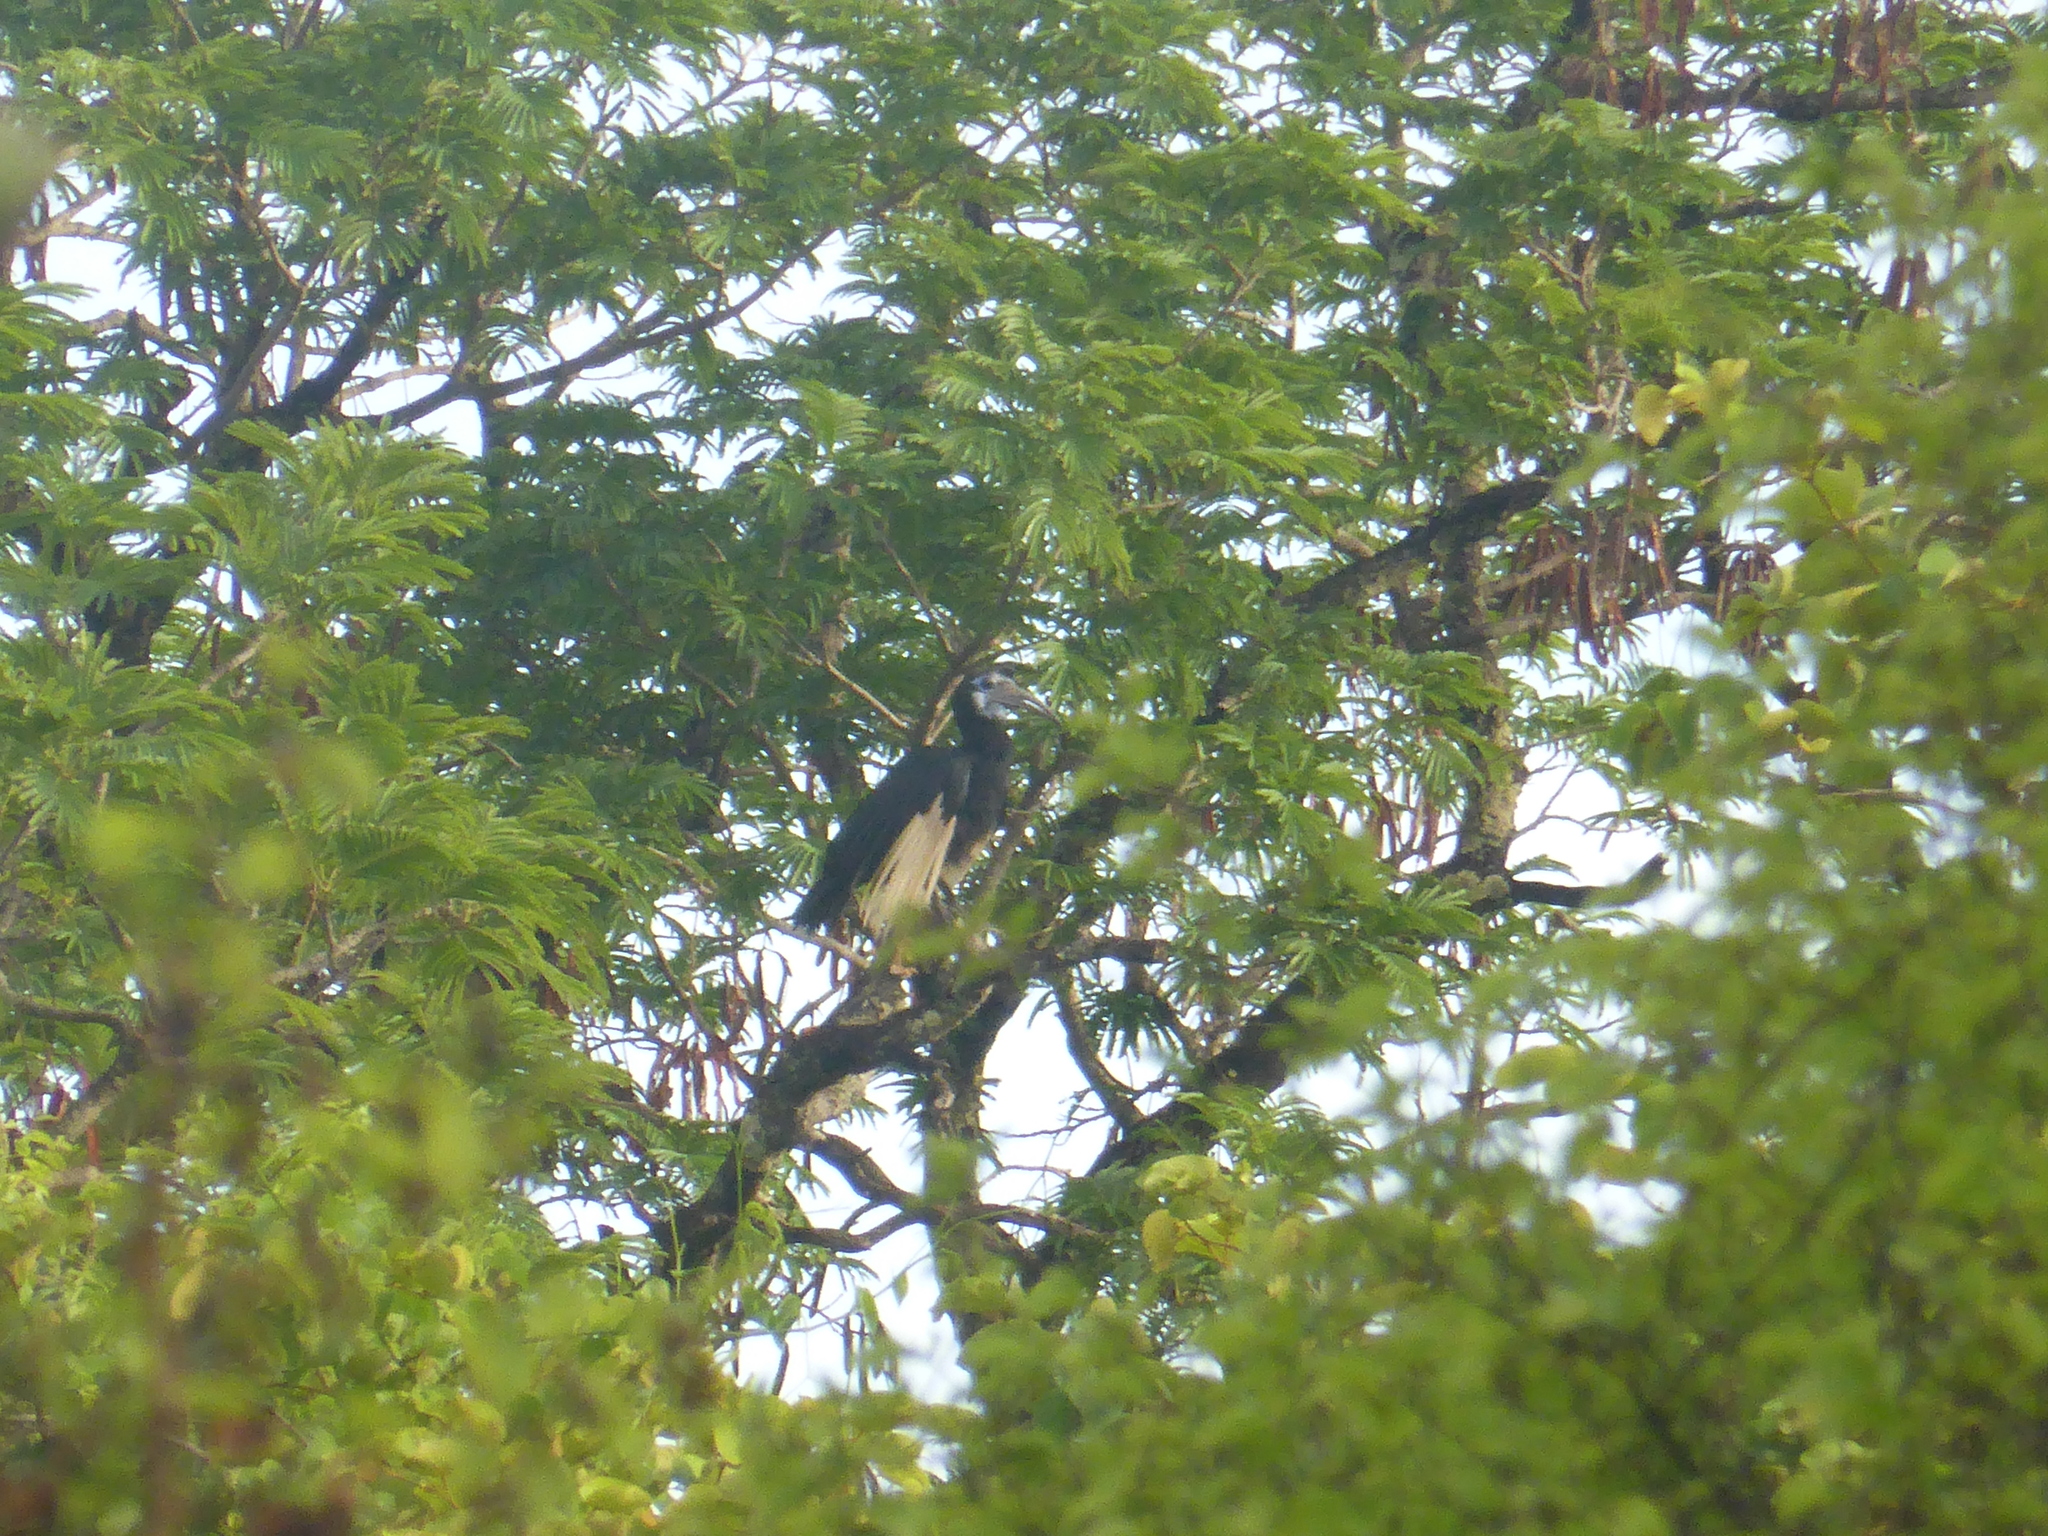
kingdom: Animalia
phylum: Chordata
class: Aves
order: Bucerotiformes
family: Bucorvidae
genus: Bucorvus
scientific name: Bucorvus abyssinicus
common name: Abyssinian ground hornbill
